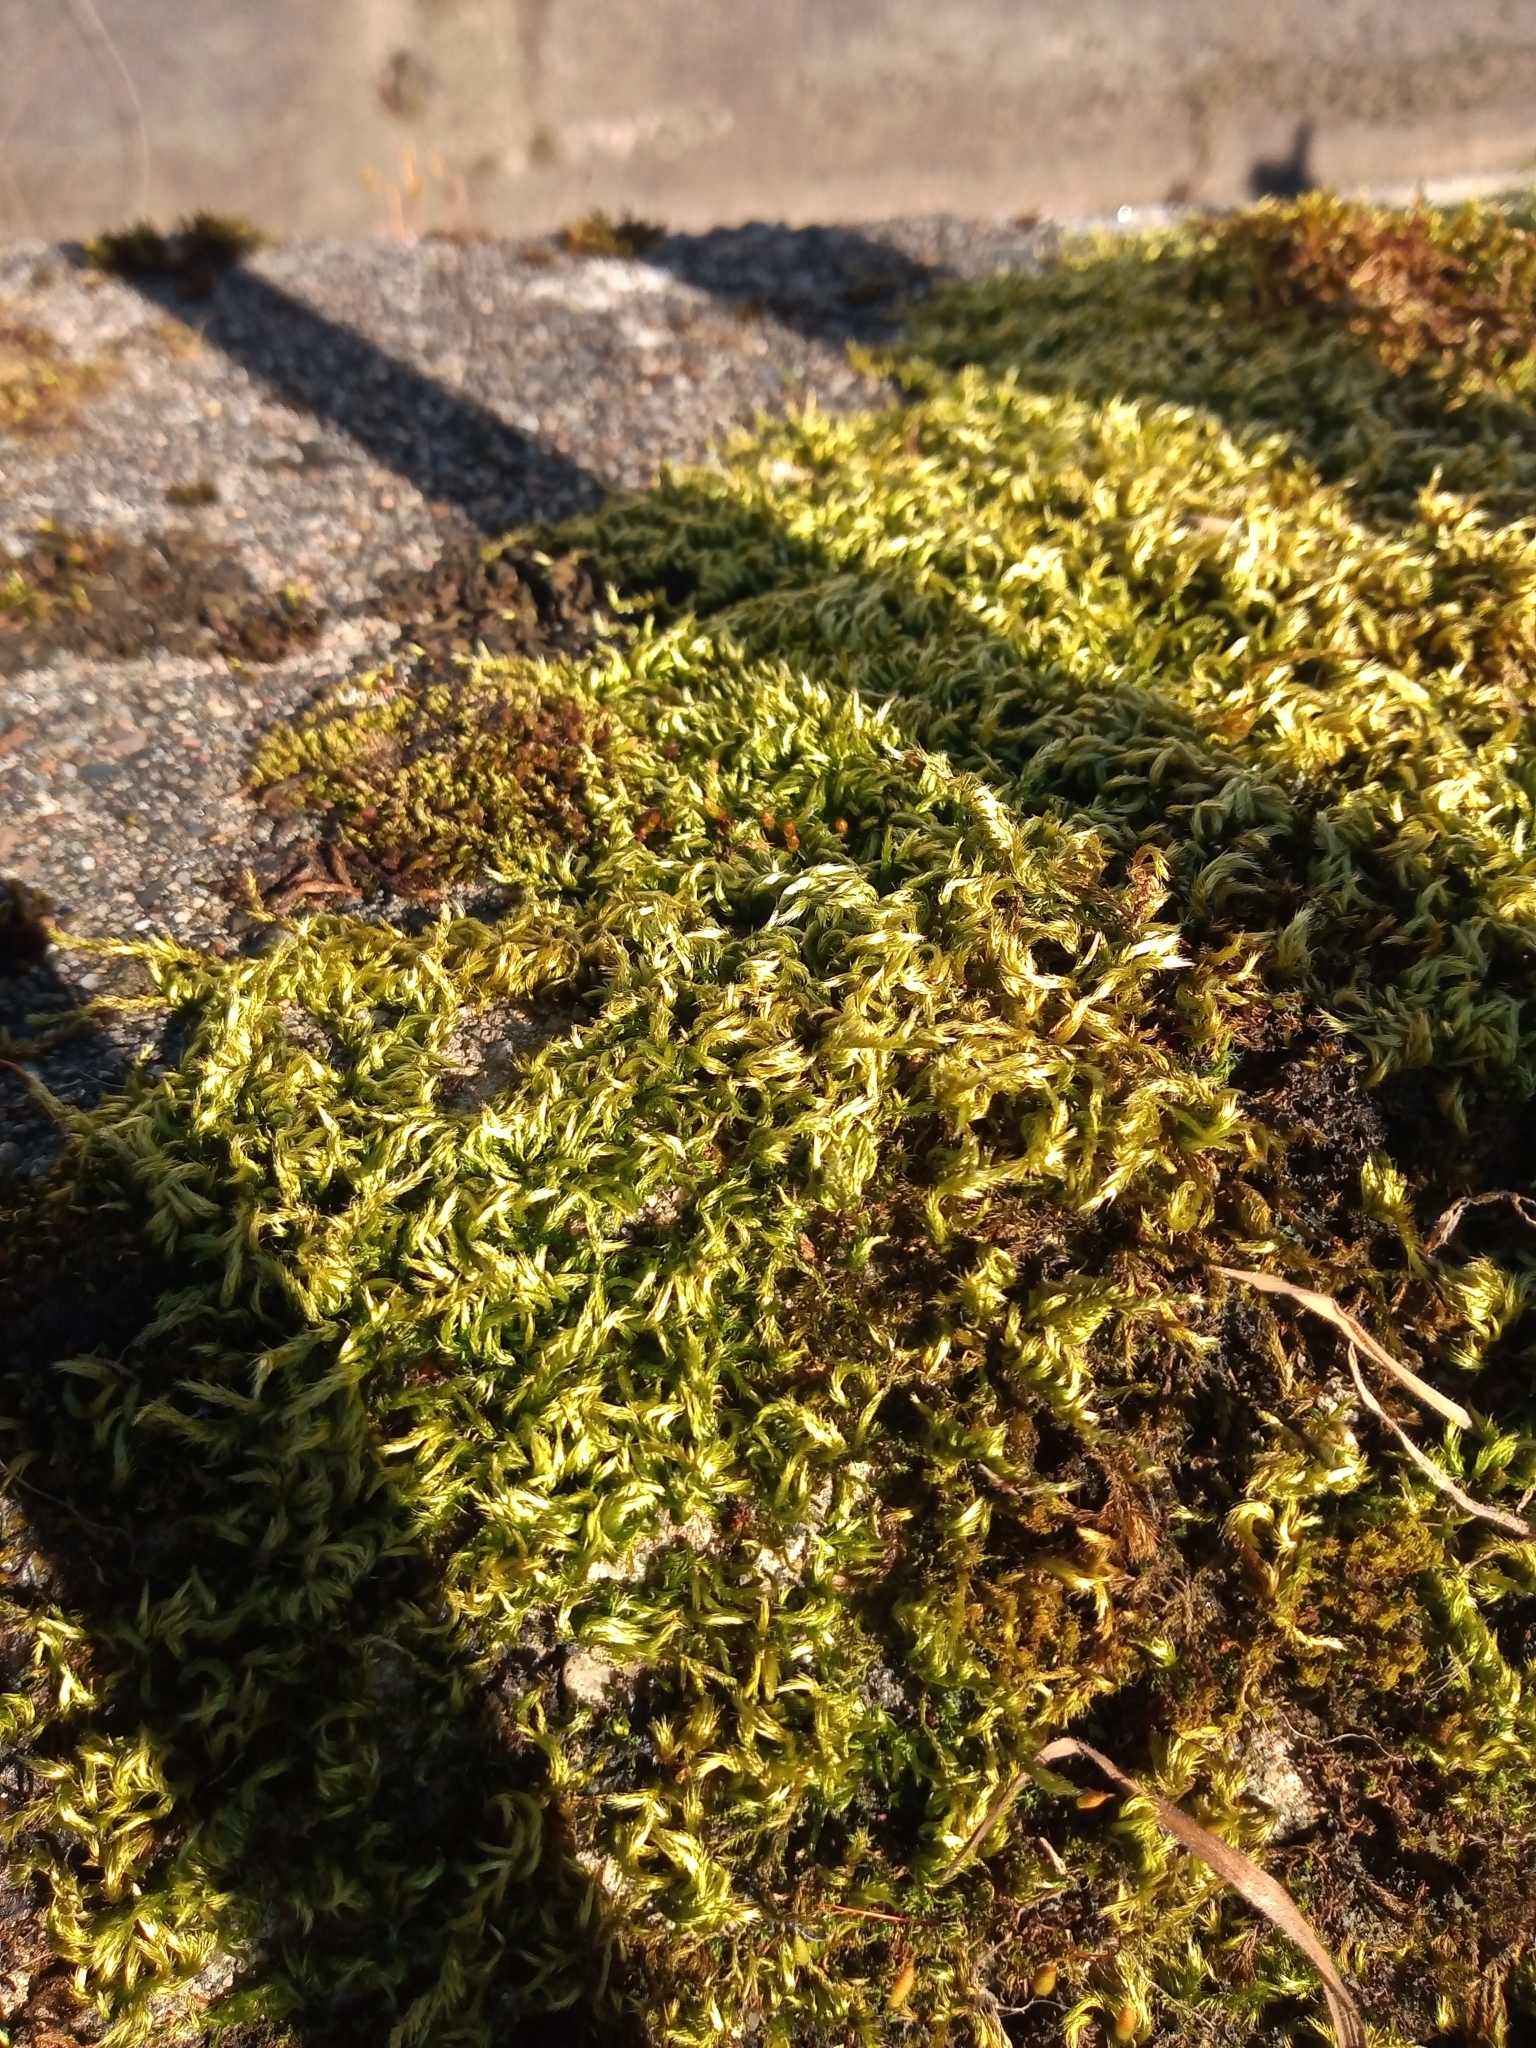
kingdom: Plantae
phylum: Bryophyta
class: Bryopsida
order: Hypnales
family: Brachytheciaceae
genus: Homalothecium
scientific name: Homalothecium sericeum
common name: Silky wall feather-moss
